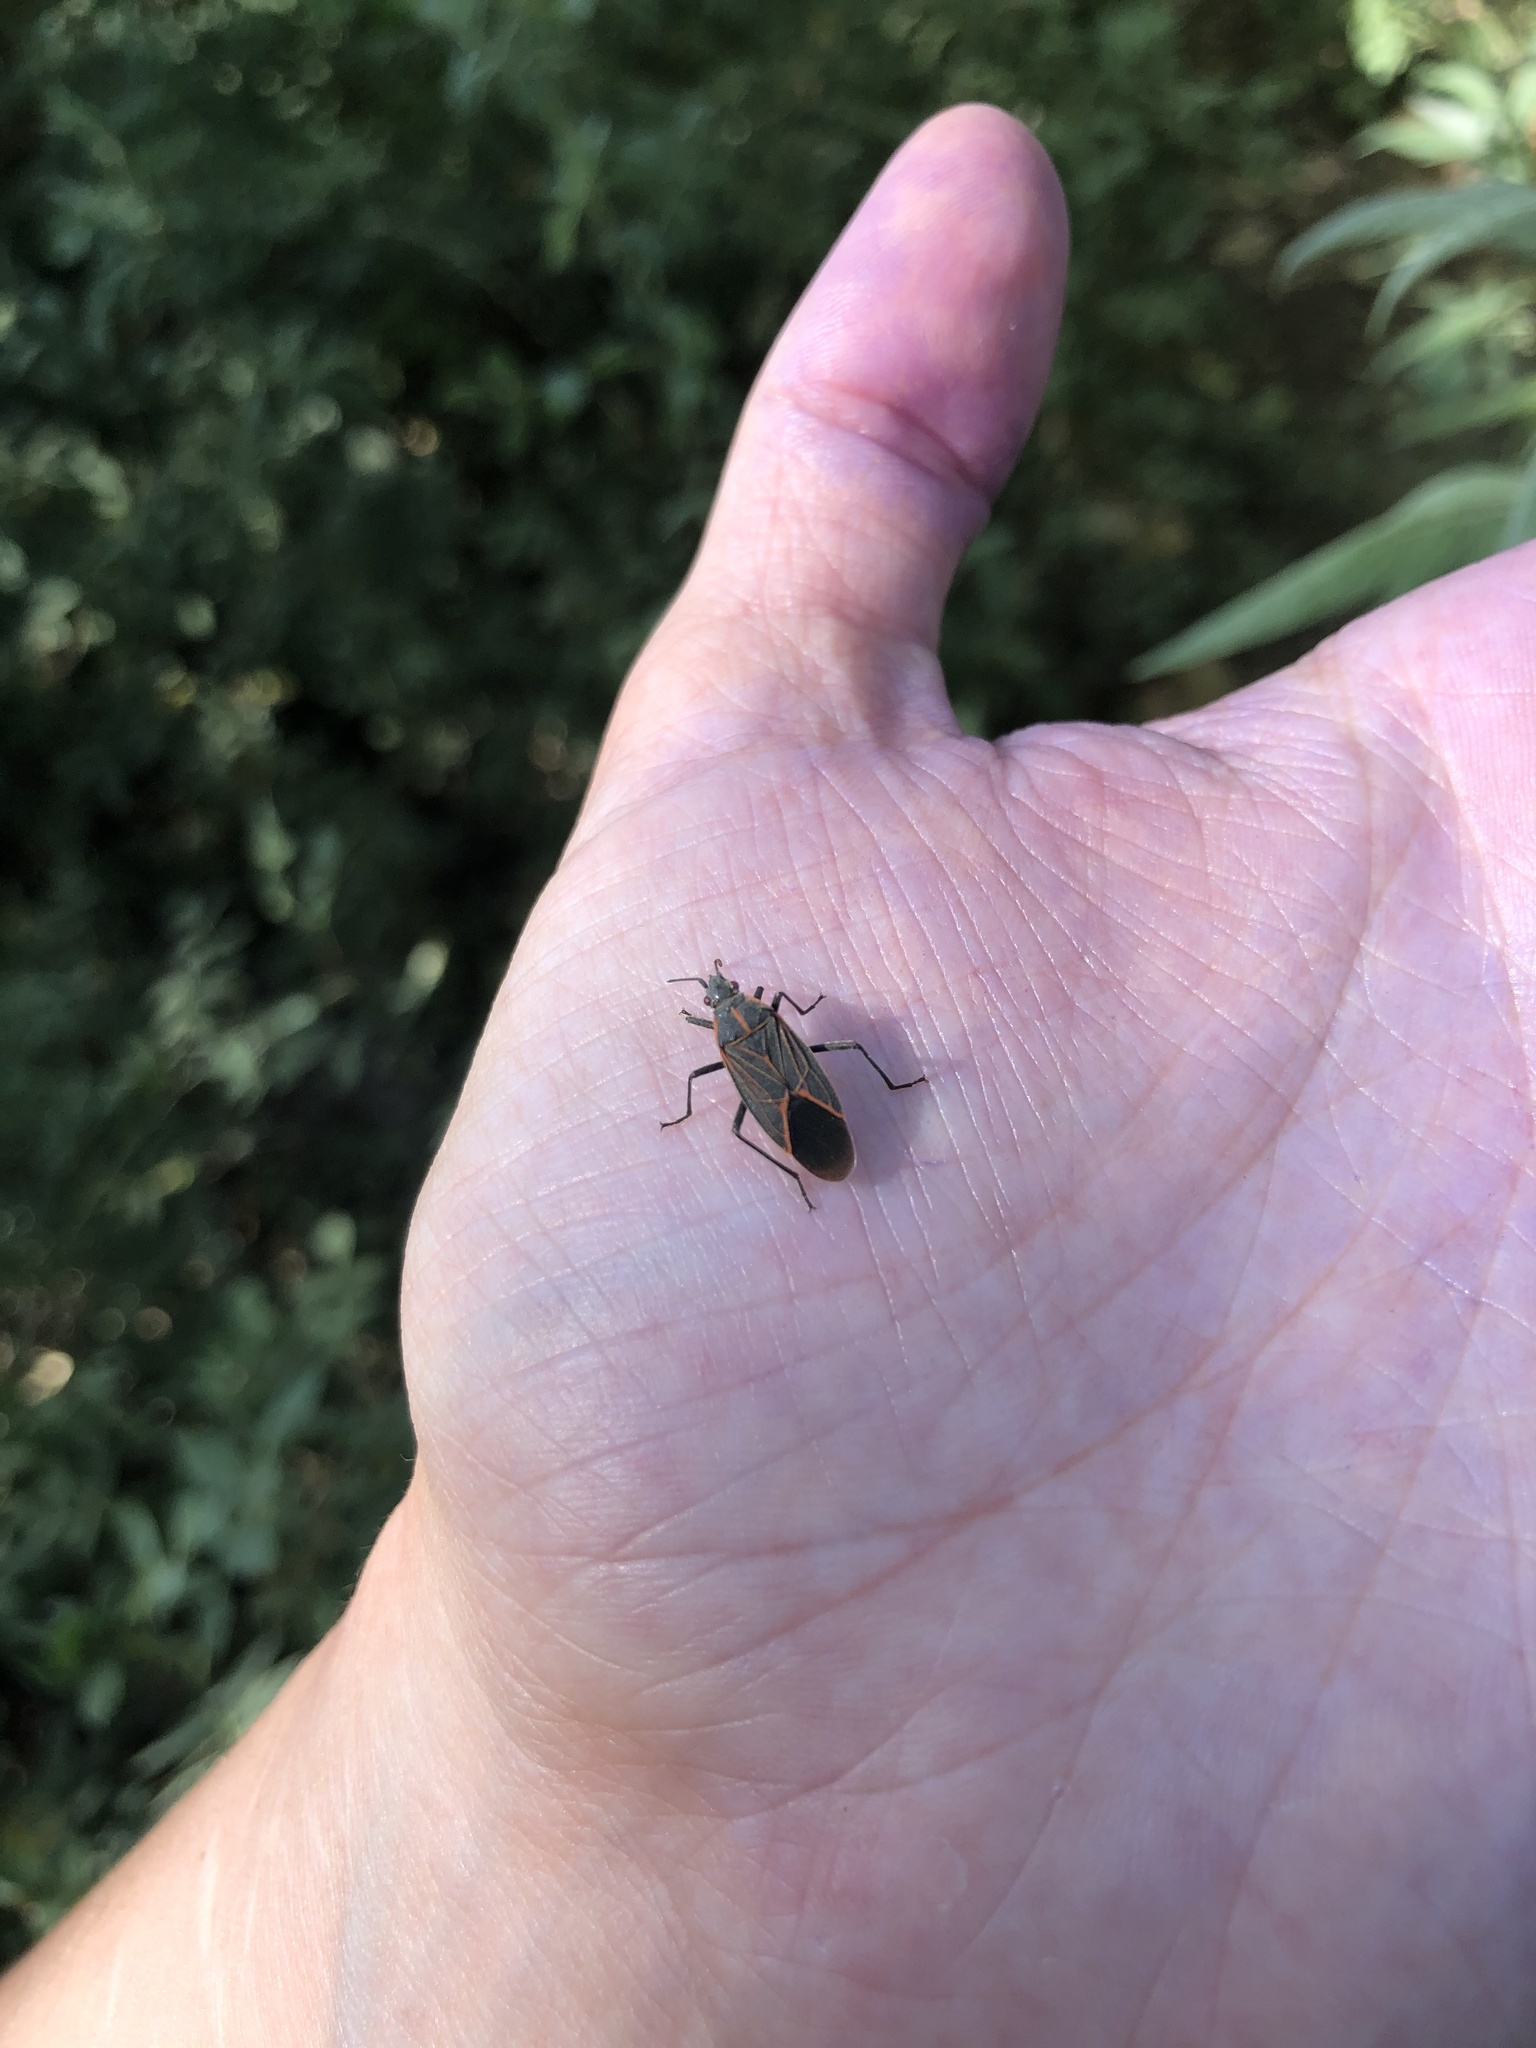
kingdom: Animalia
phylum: Arthropoda
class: Insecta
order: Hemiptera
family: Rhopalidae
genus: Boisea
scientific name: Boisea rubrolineata
